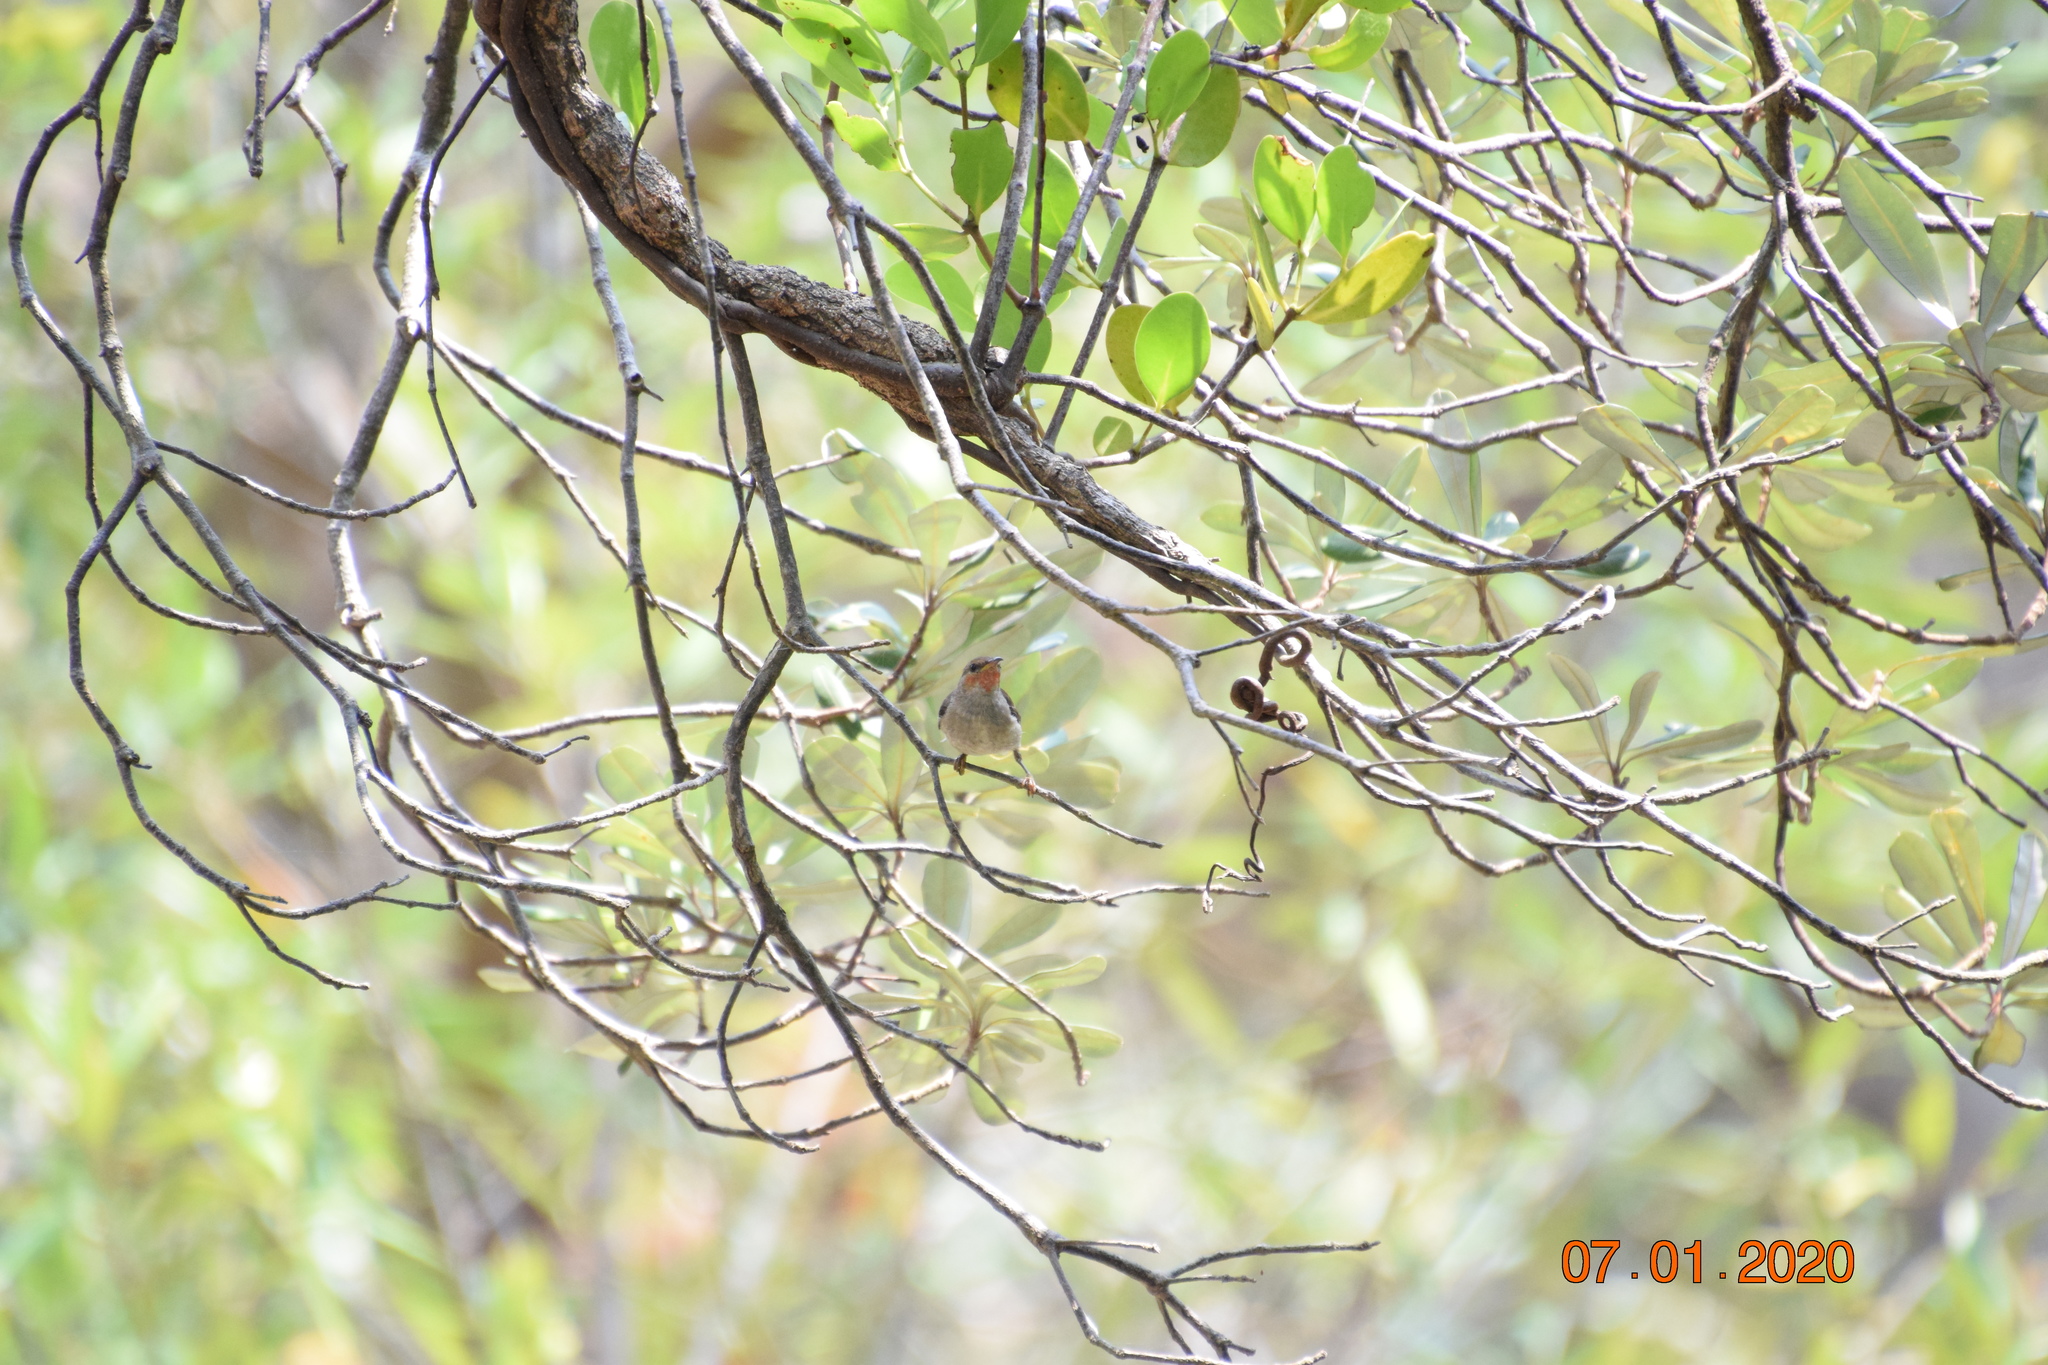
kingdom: Animalia
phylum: Chordata
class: Aves
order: Passeriformes
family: Meliphagidae
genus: Myzomela
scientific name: Myzomela sanguinolenta
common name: Scarlet myzomela
